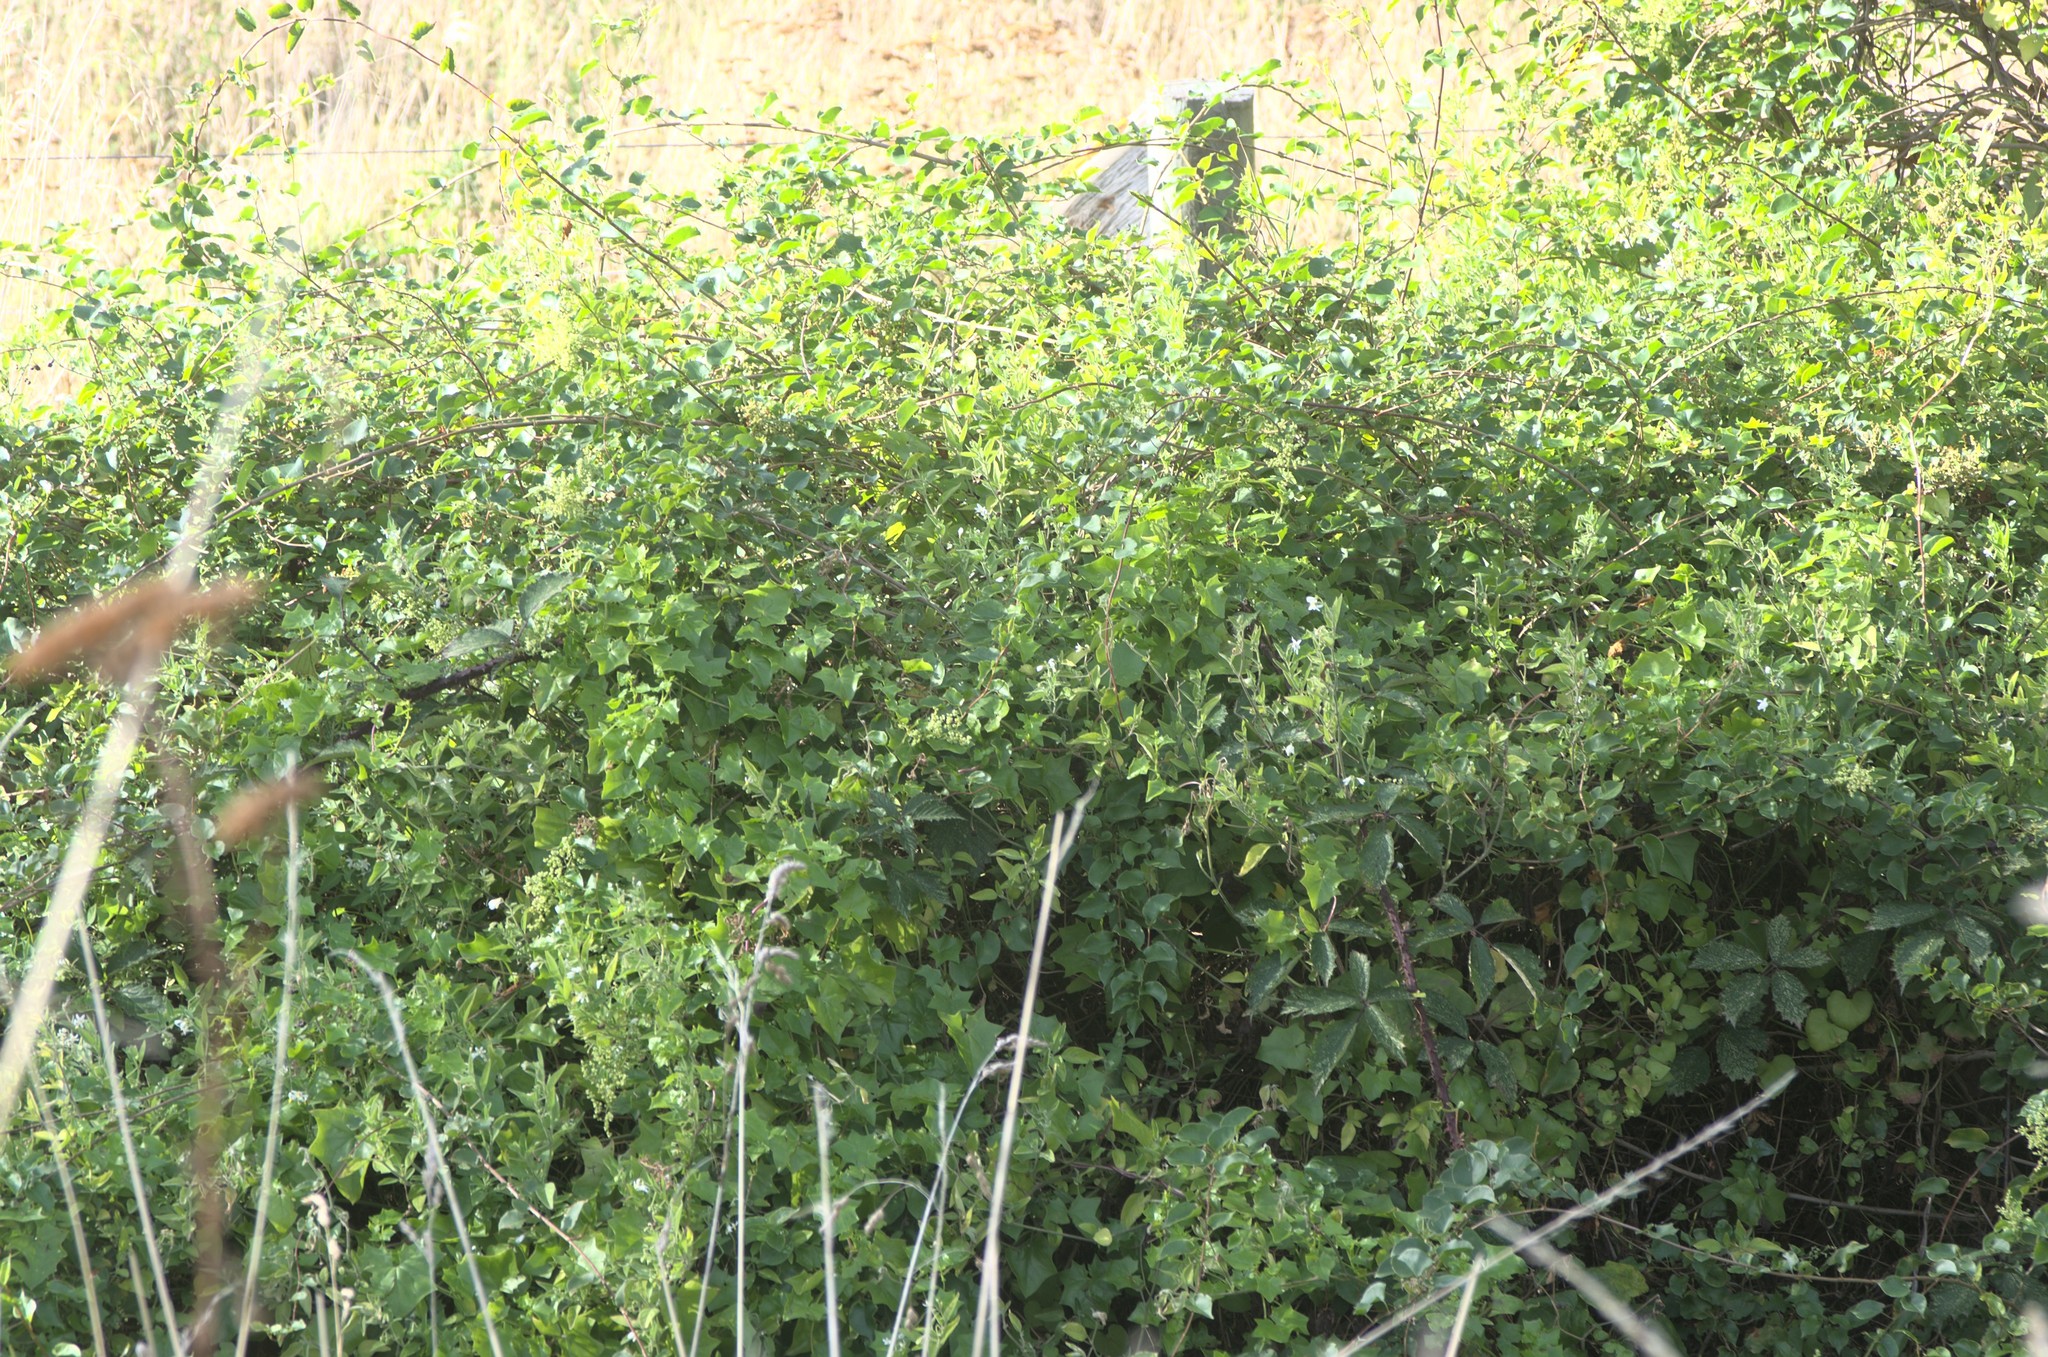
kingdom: Plantae
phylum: Tracheophyta
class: Magnoliopsida
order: Asterales
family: Asteraceae
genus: Delairea
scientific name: Delairea odorata
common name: Cape-ivy
